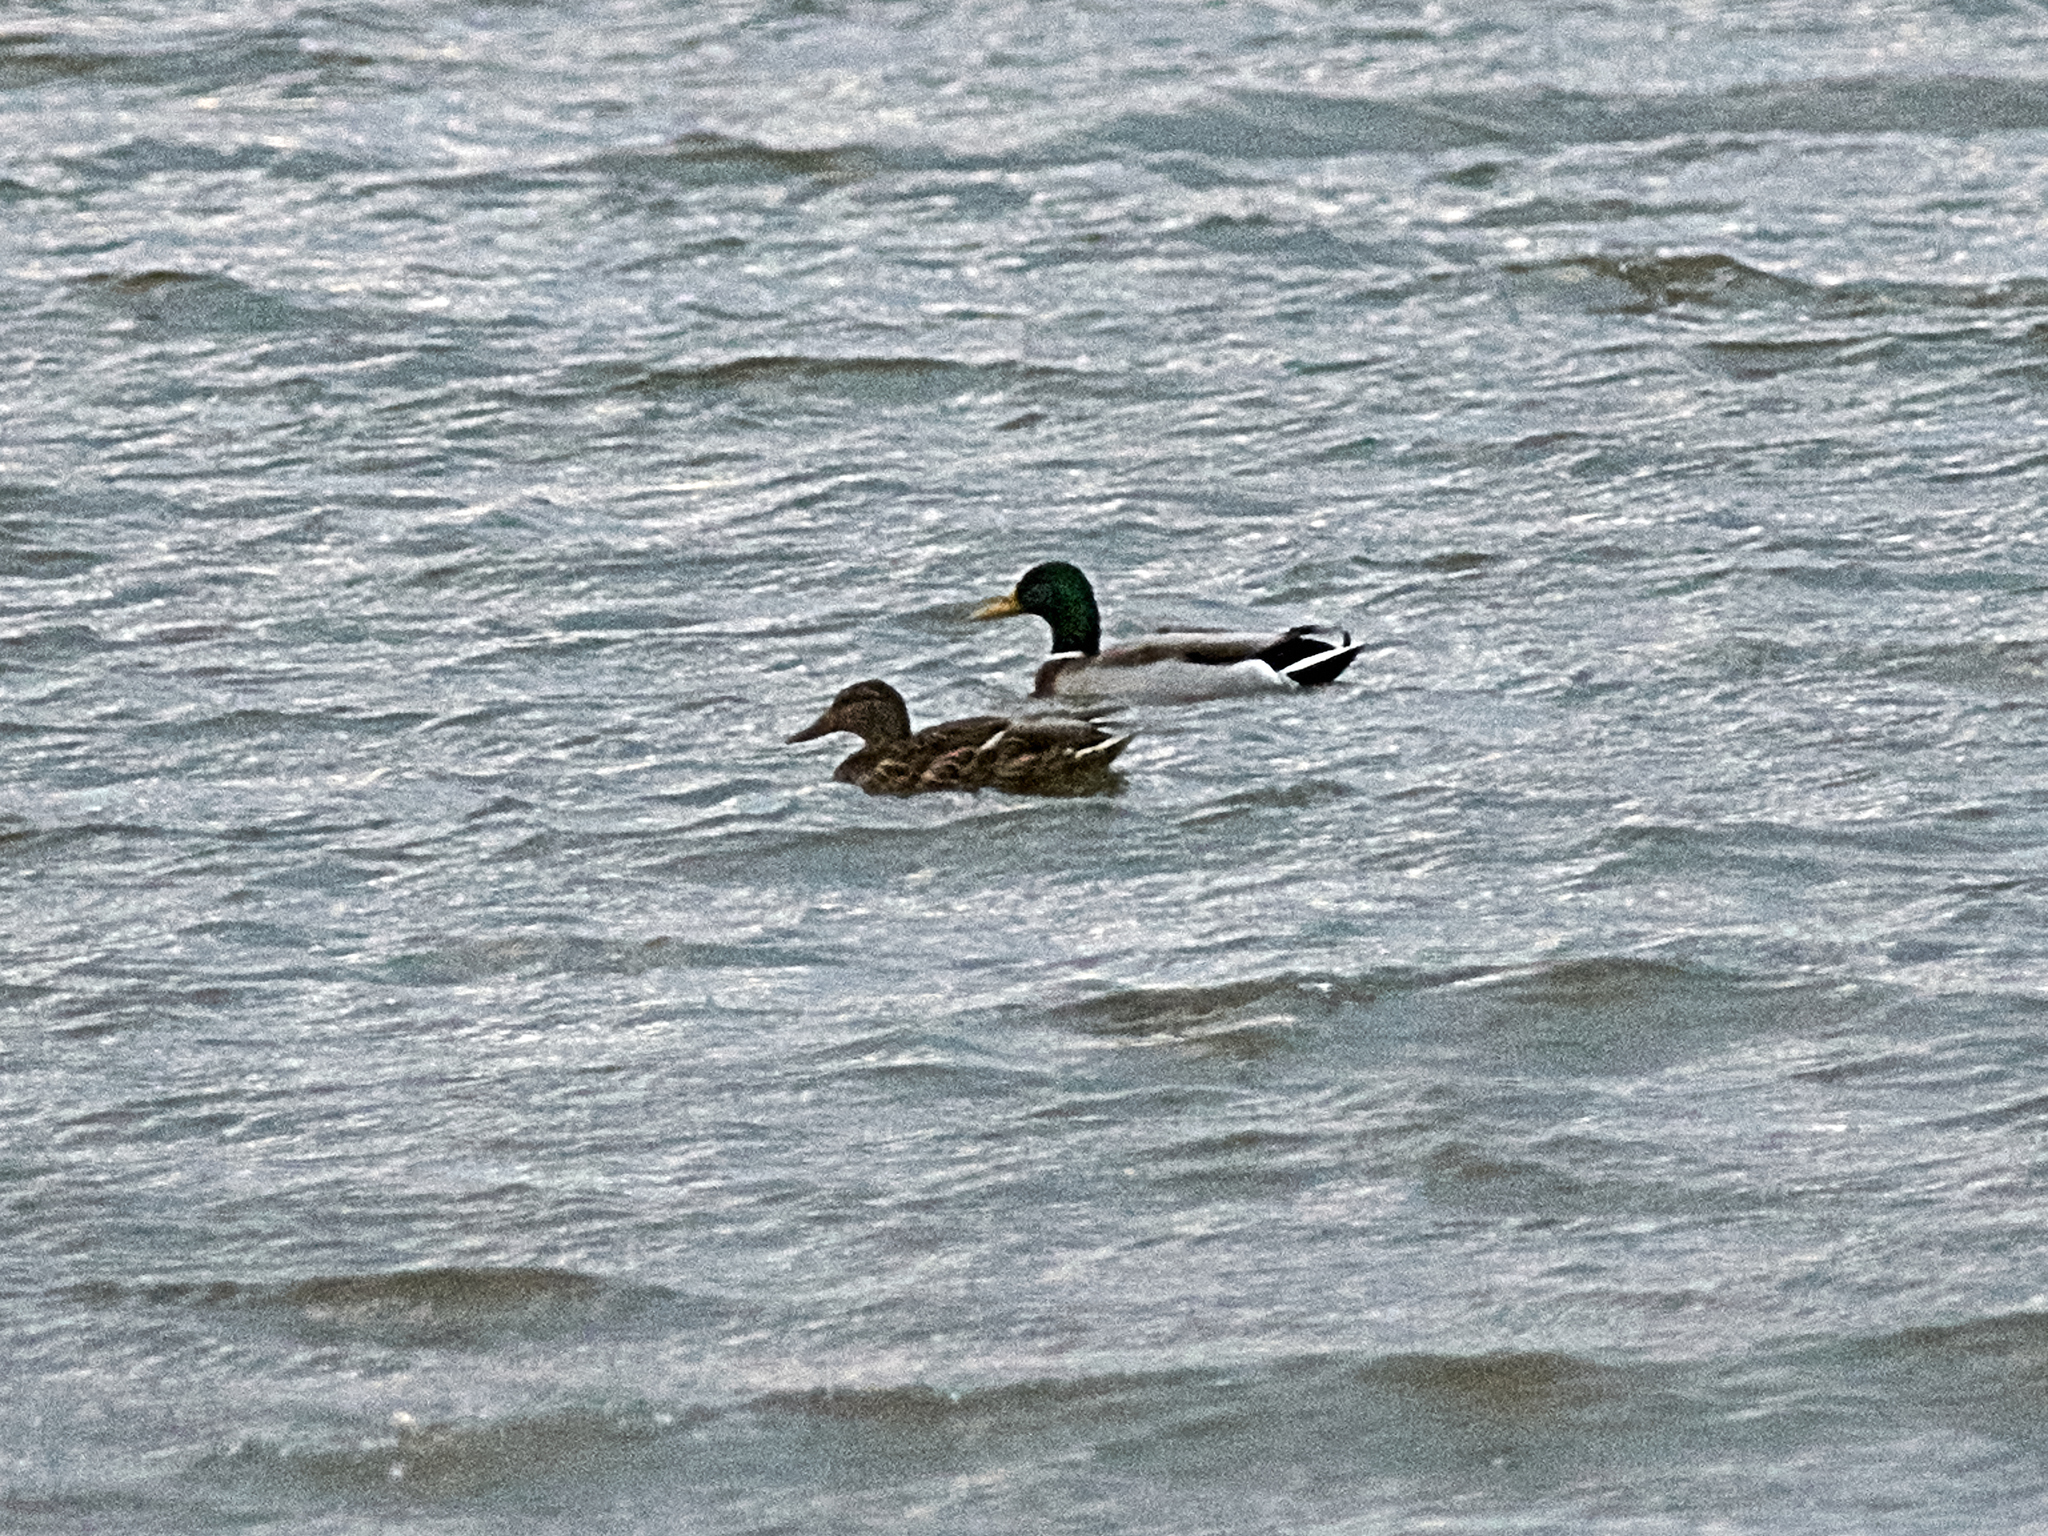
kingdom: Animalia
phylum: Chordata
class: Aves
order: Anseriformes
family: Anatidae
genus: Anas
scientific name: Anas platyrhynchos
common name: Mallard
